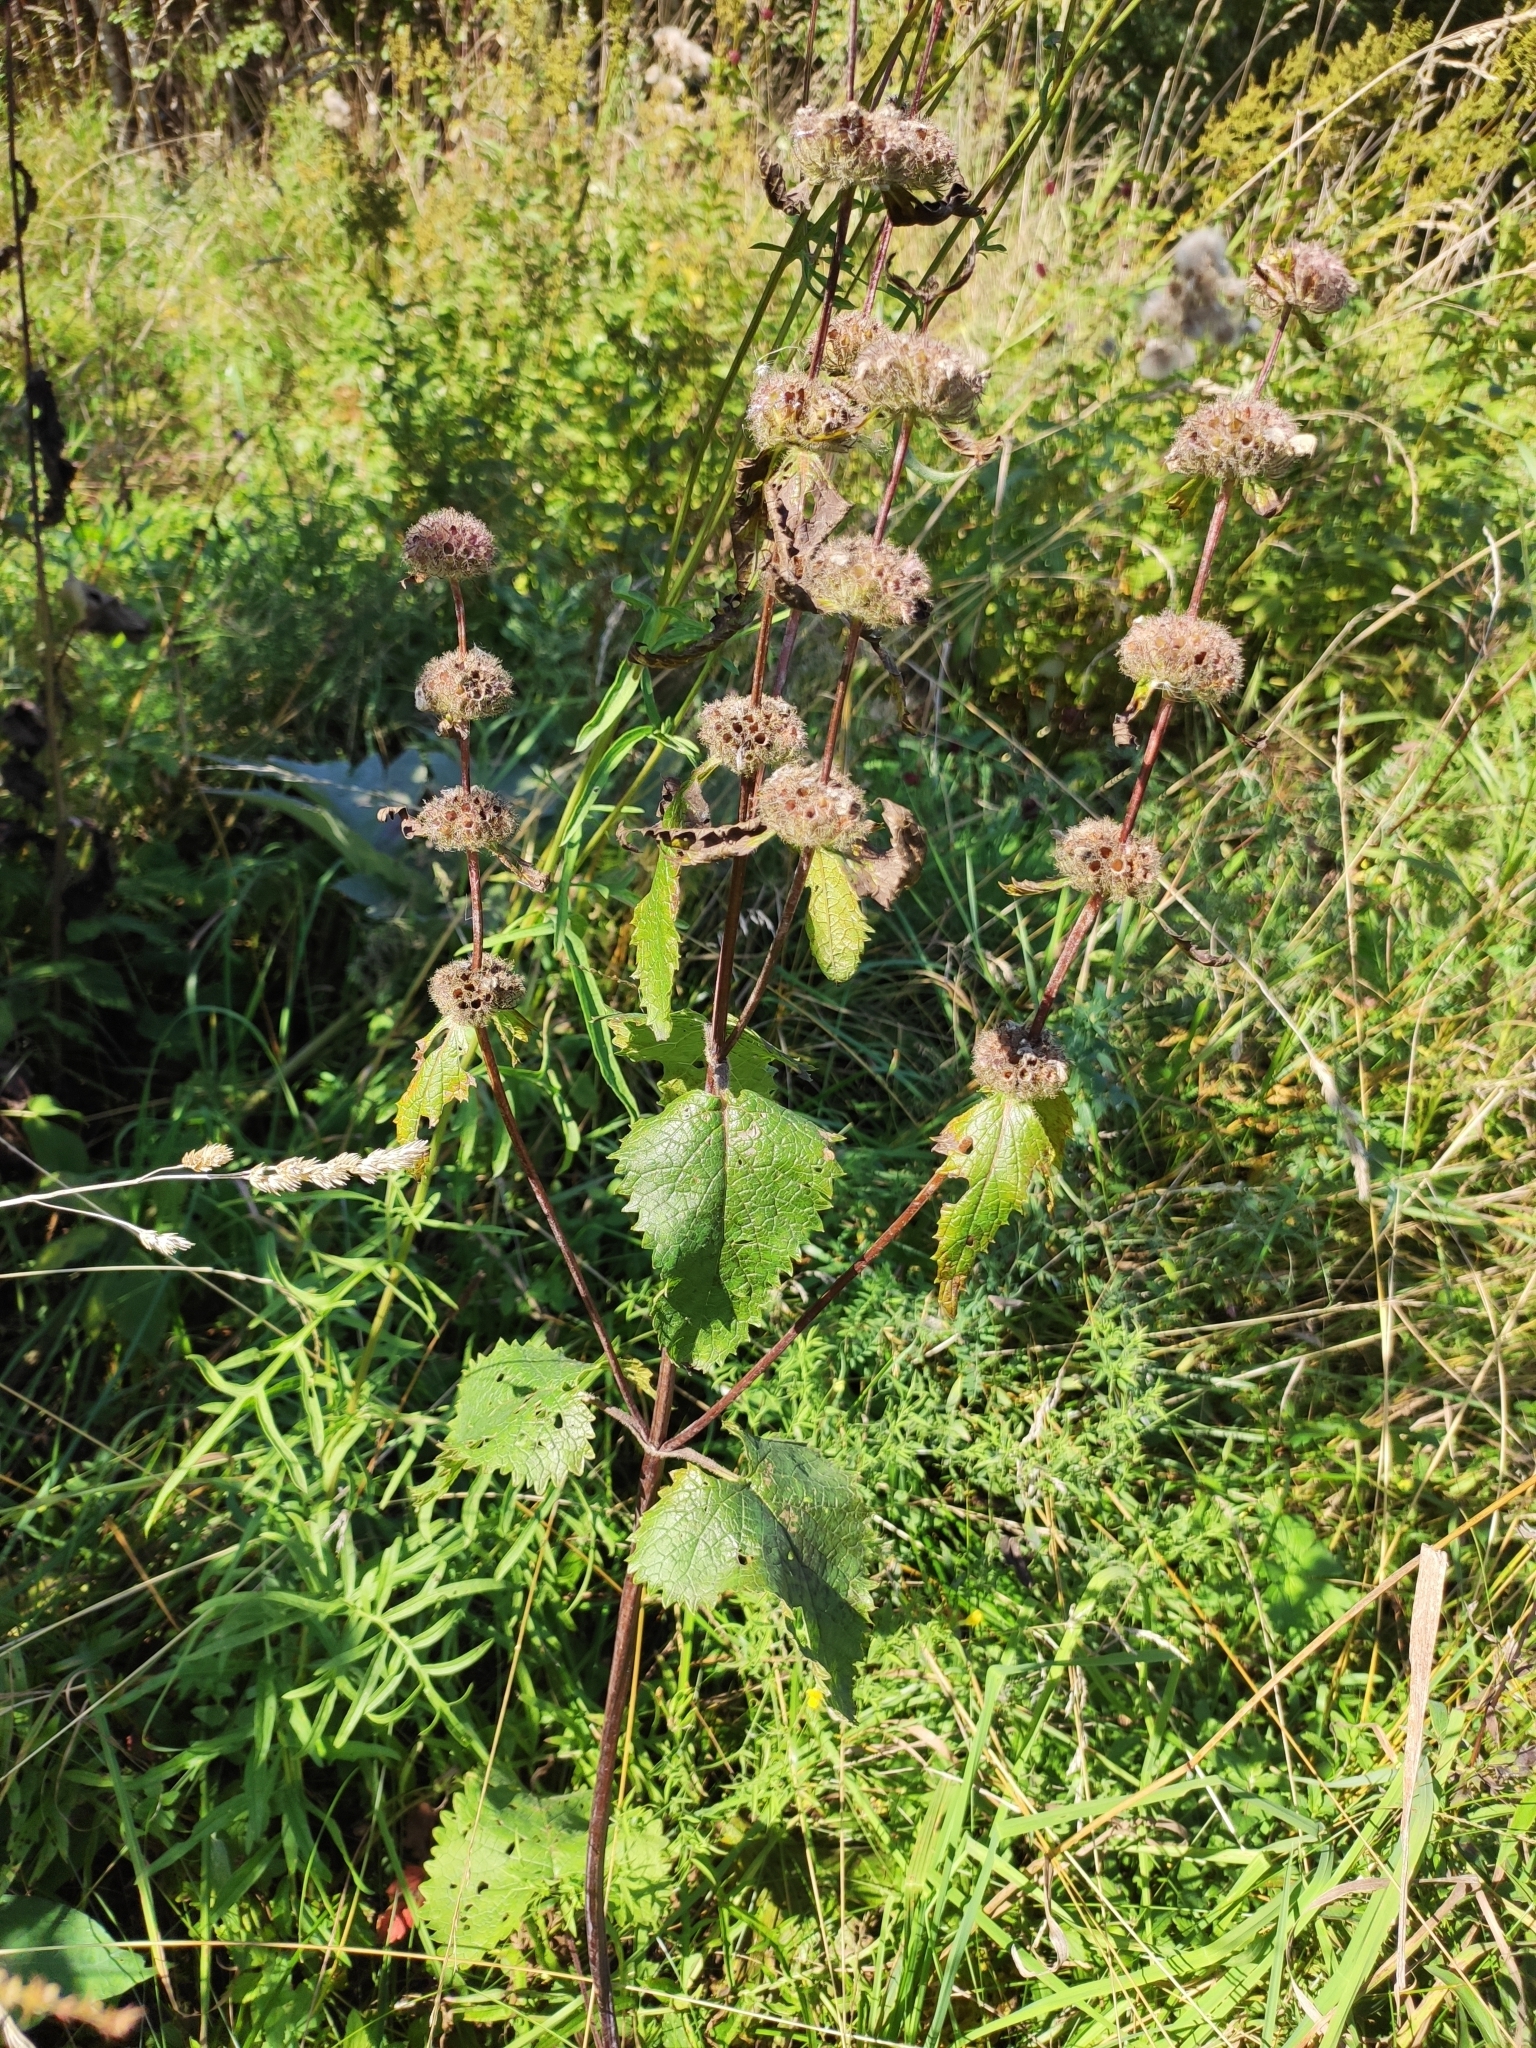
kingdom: Plantae
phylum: Tracheophyta
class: Magnoliopsida
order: Lamiales
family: Lamiaceae
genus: Phlomoides
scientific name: Phlomoides tuberosa
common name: Tuberous jerusalem sage
